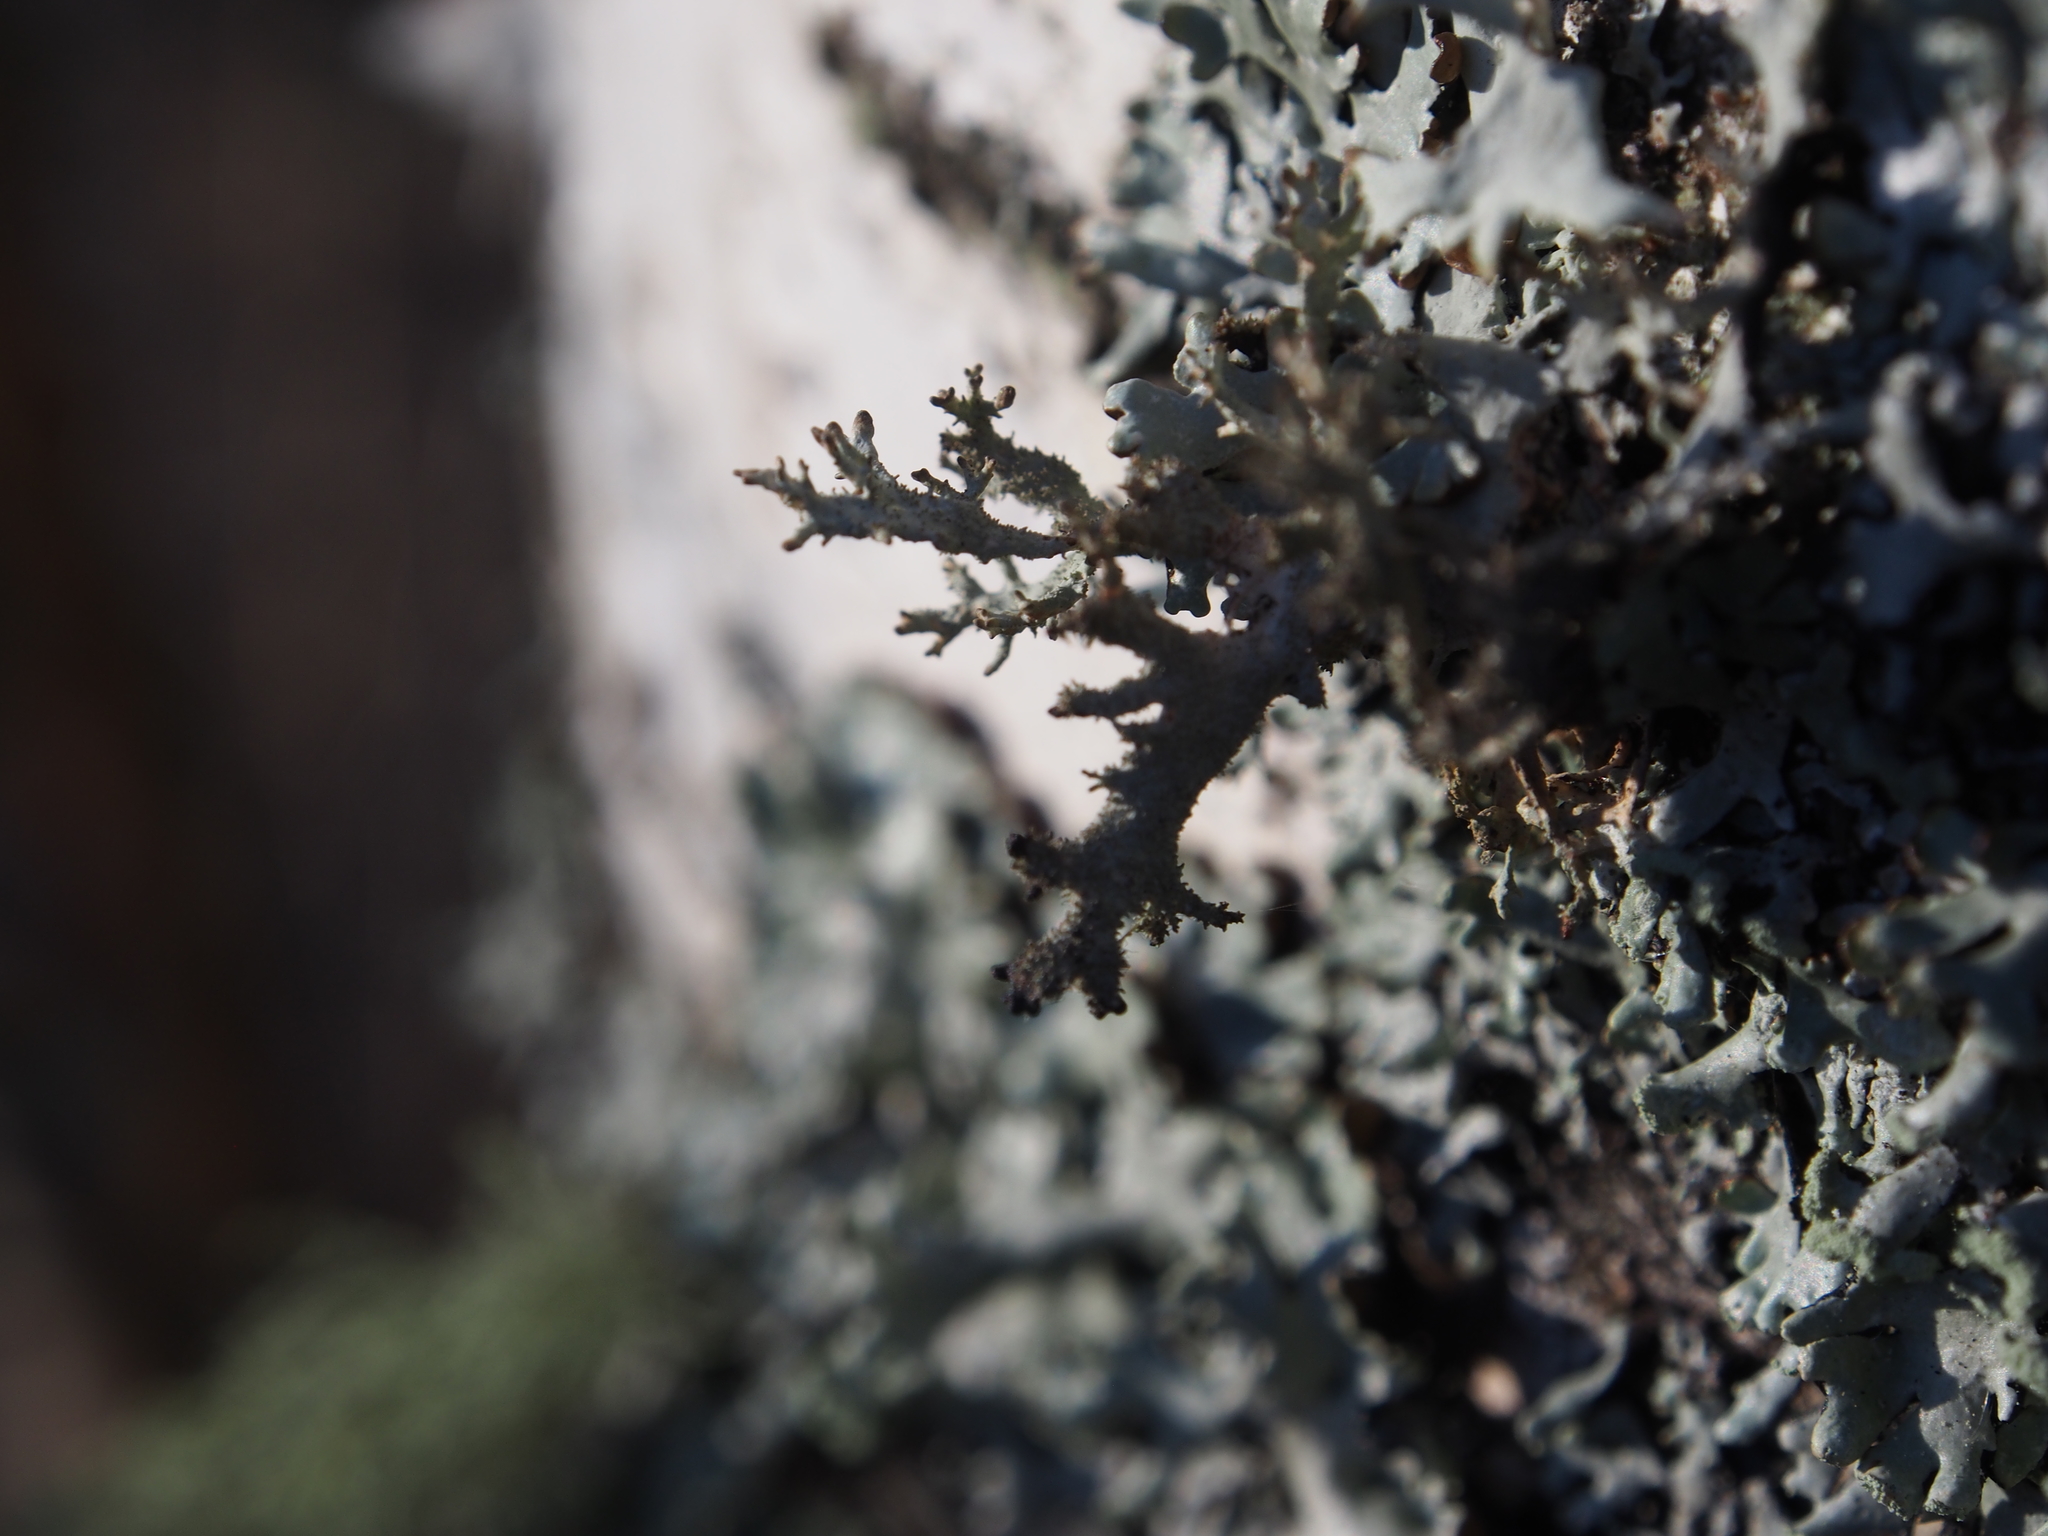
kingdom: Fungi
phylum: Ascomycota
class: Lecanoromycetes
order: Lecanorales
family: Parmeliaceae
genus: Pseudevernia
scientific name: Pseudevernia furfuracea
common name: Tree moss
